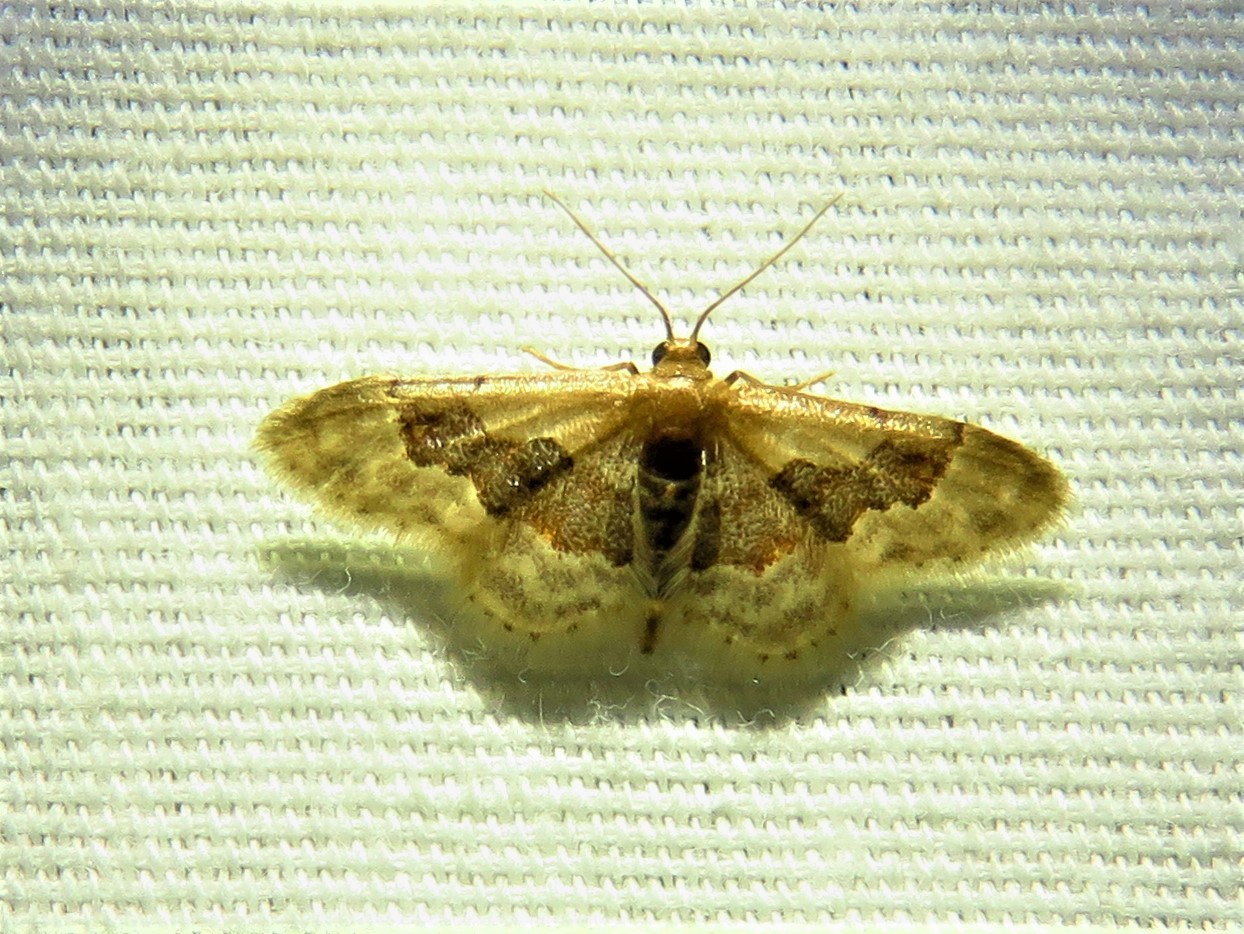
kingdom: Animalia
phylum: Arthropoda
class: Insecta
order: Lepidoptera
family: Geometridae
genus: Idaea
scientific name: Idaea gemmata
